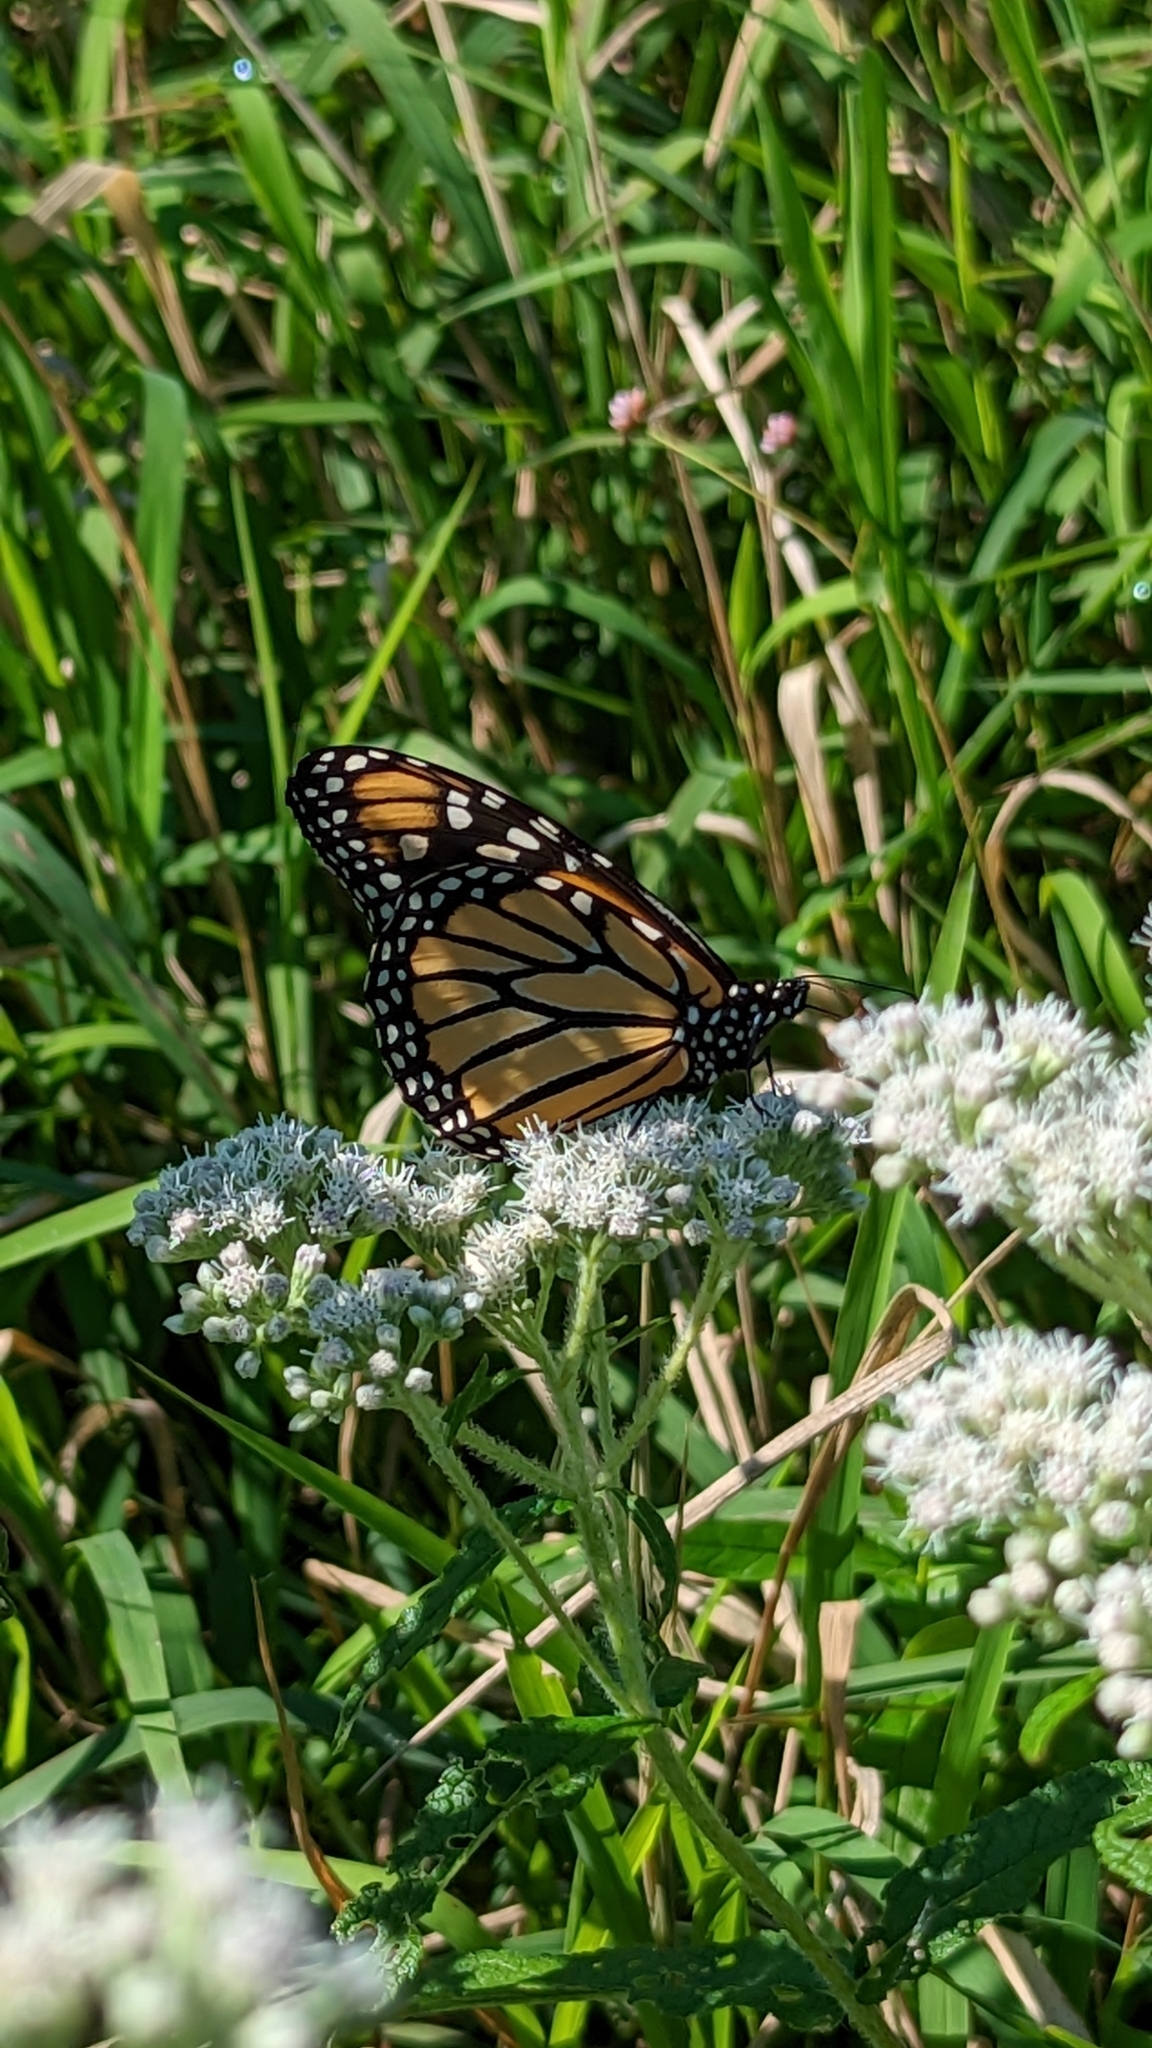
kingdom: Animalia
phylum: Arthropoda
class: Insecta
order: Lepidoptera
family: Nymphalidae
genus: Danaus
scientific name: Danaus plexippus
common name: Monarch
